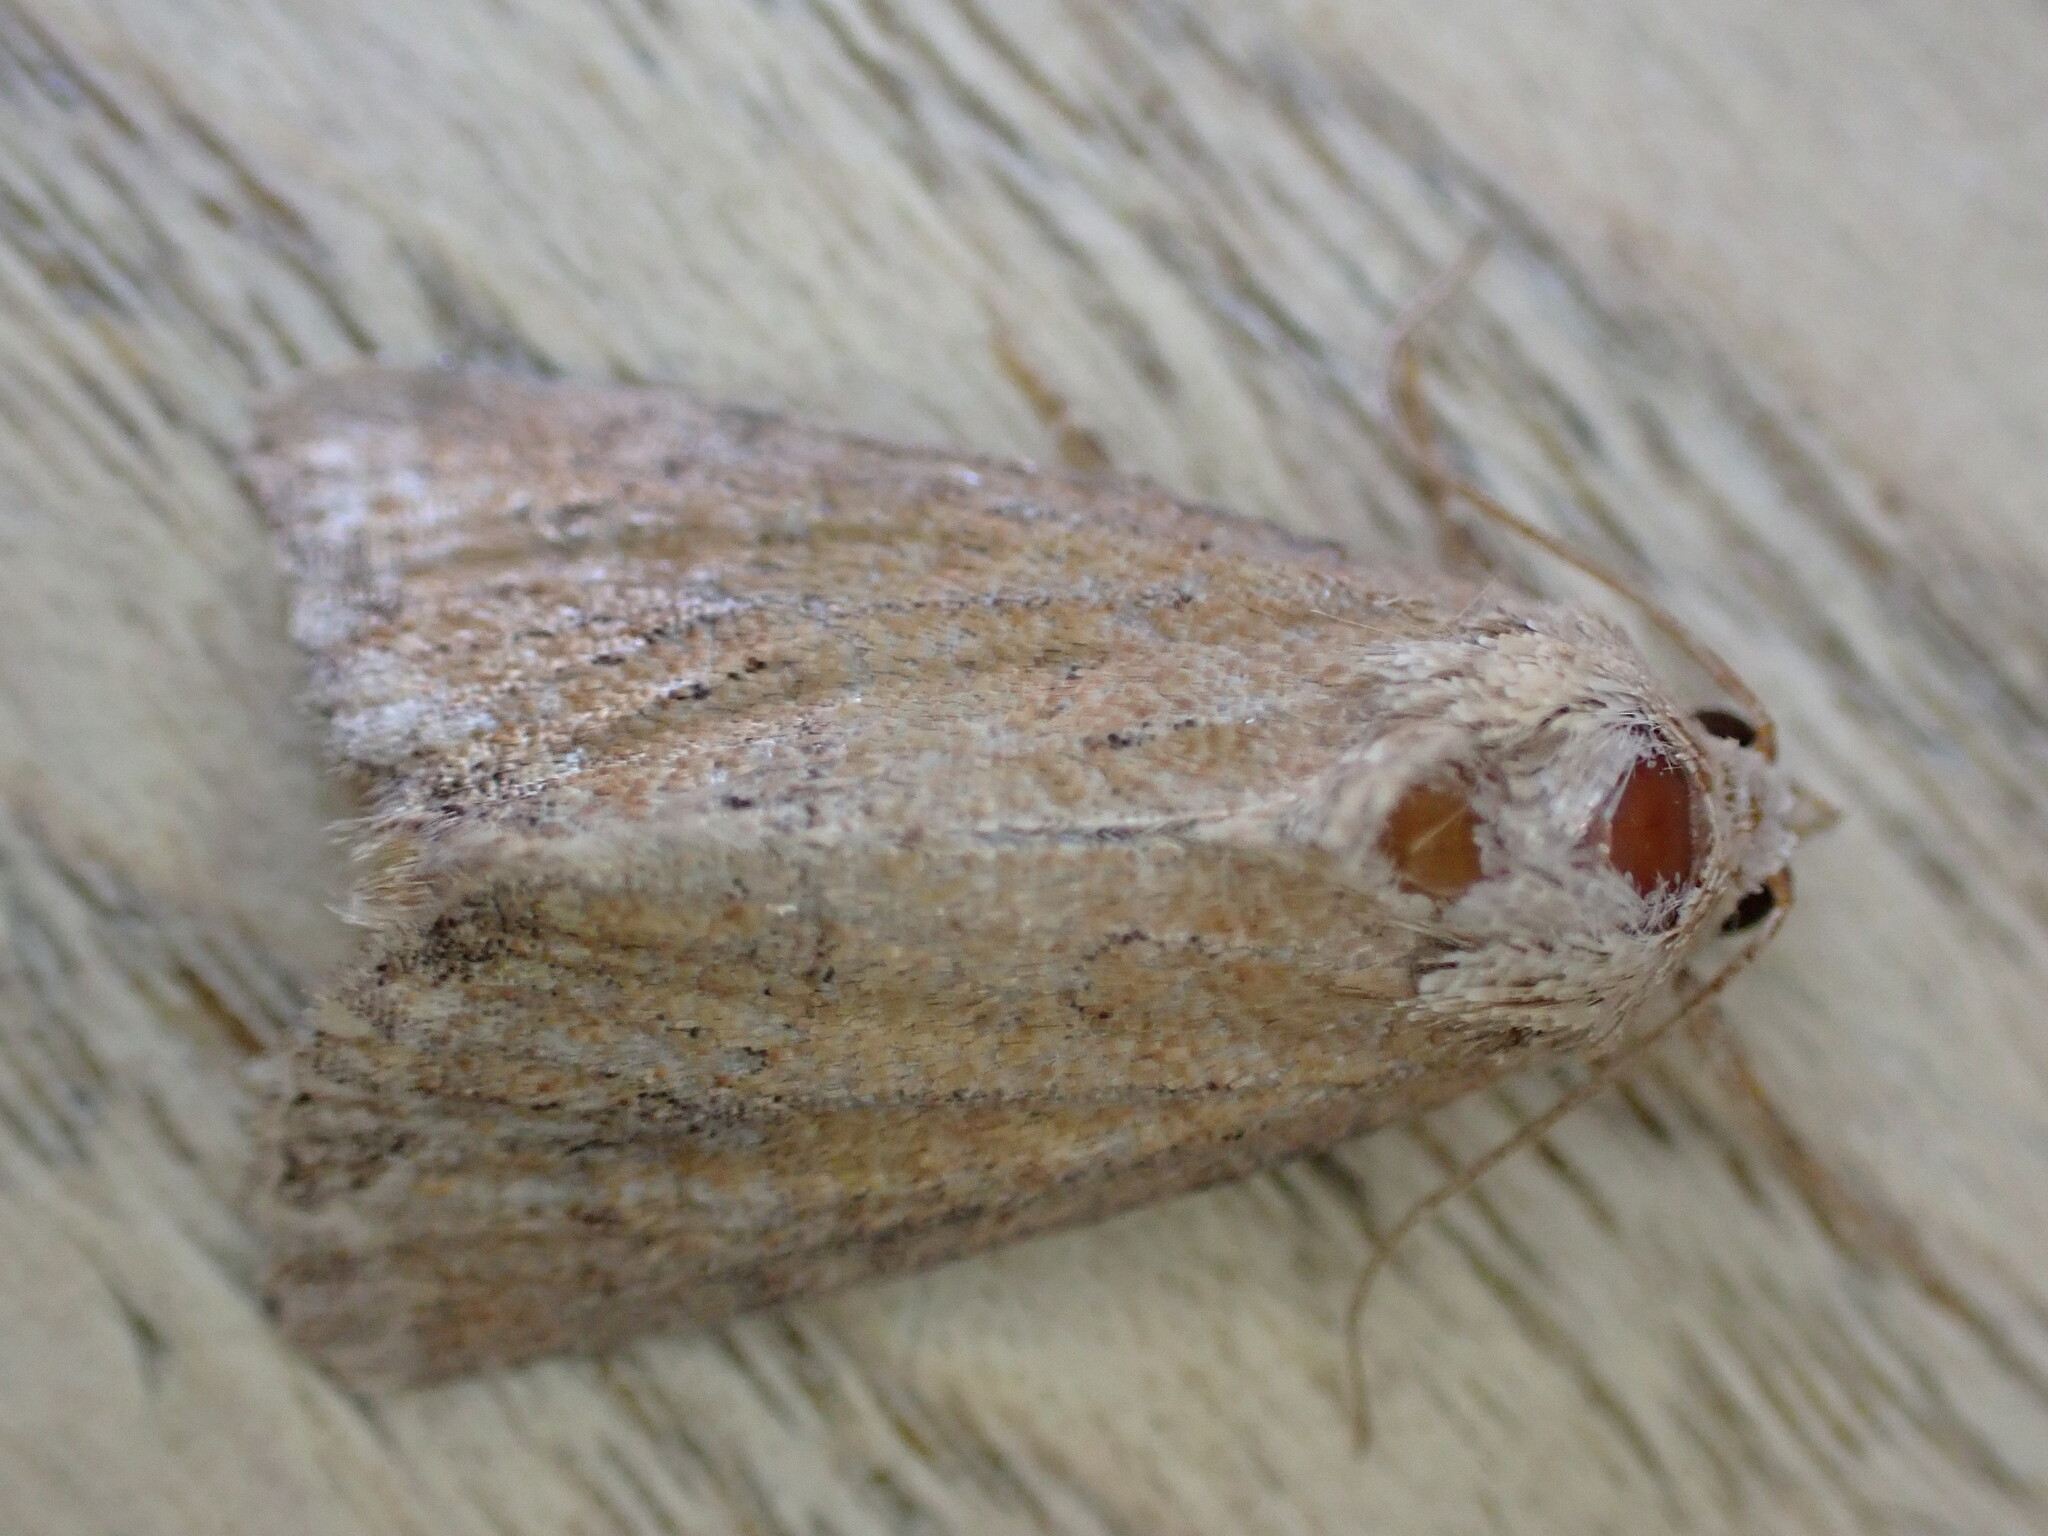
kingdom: Animalia
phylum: Arthropoda
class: Insecta
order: Lepidoptera
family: Noctuidae
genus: Mesoligia
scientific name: Mesoligia furuncula
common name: Cloaked minor
